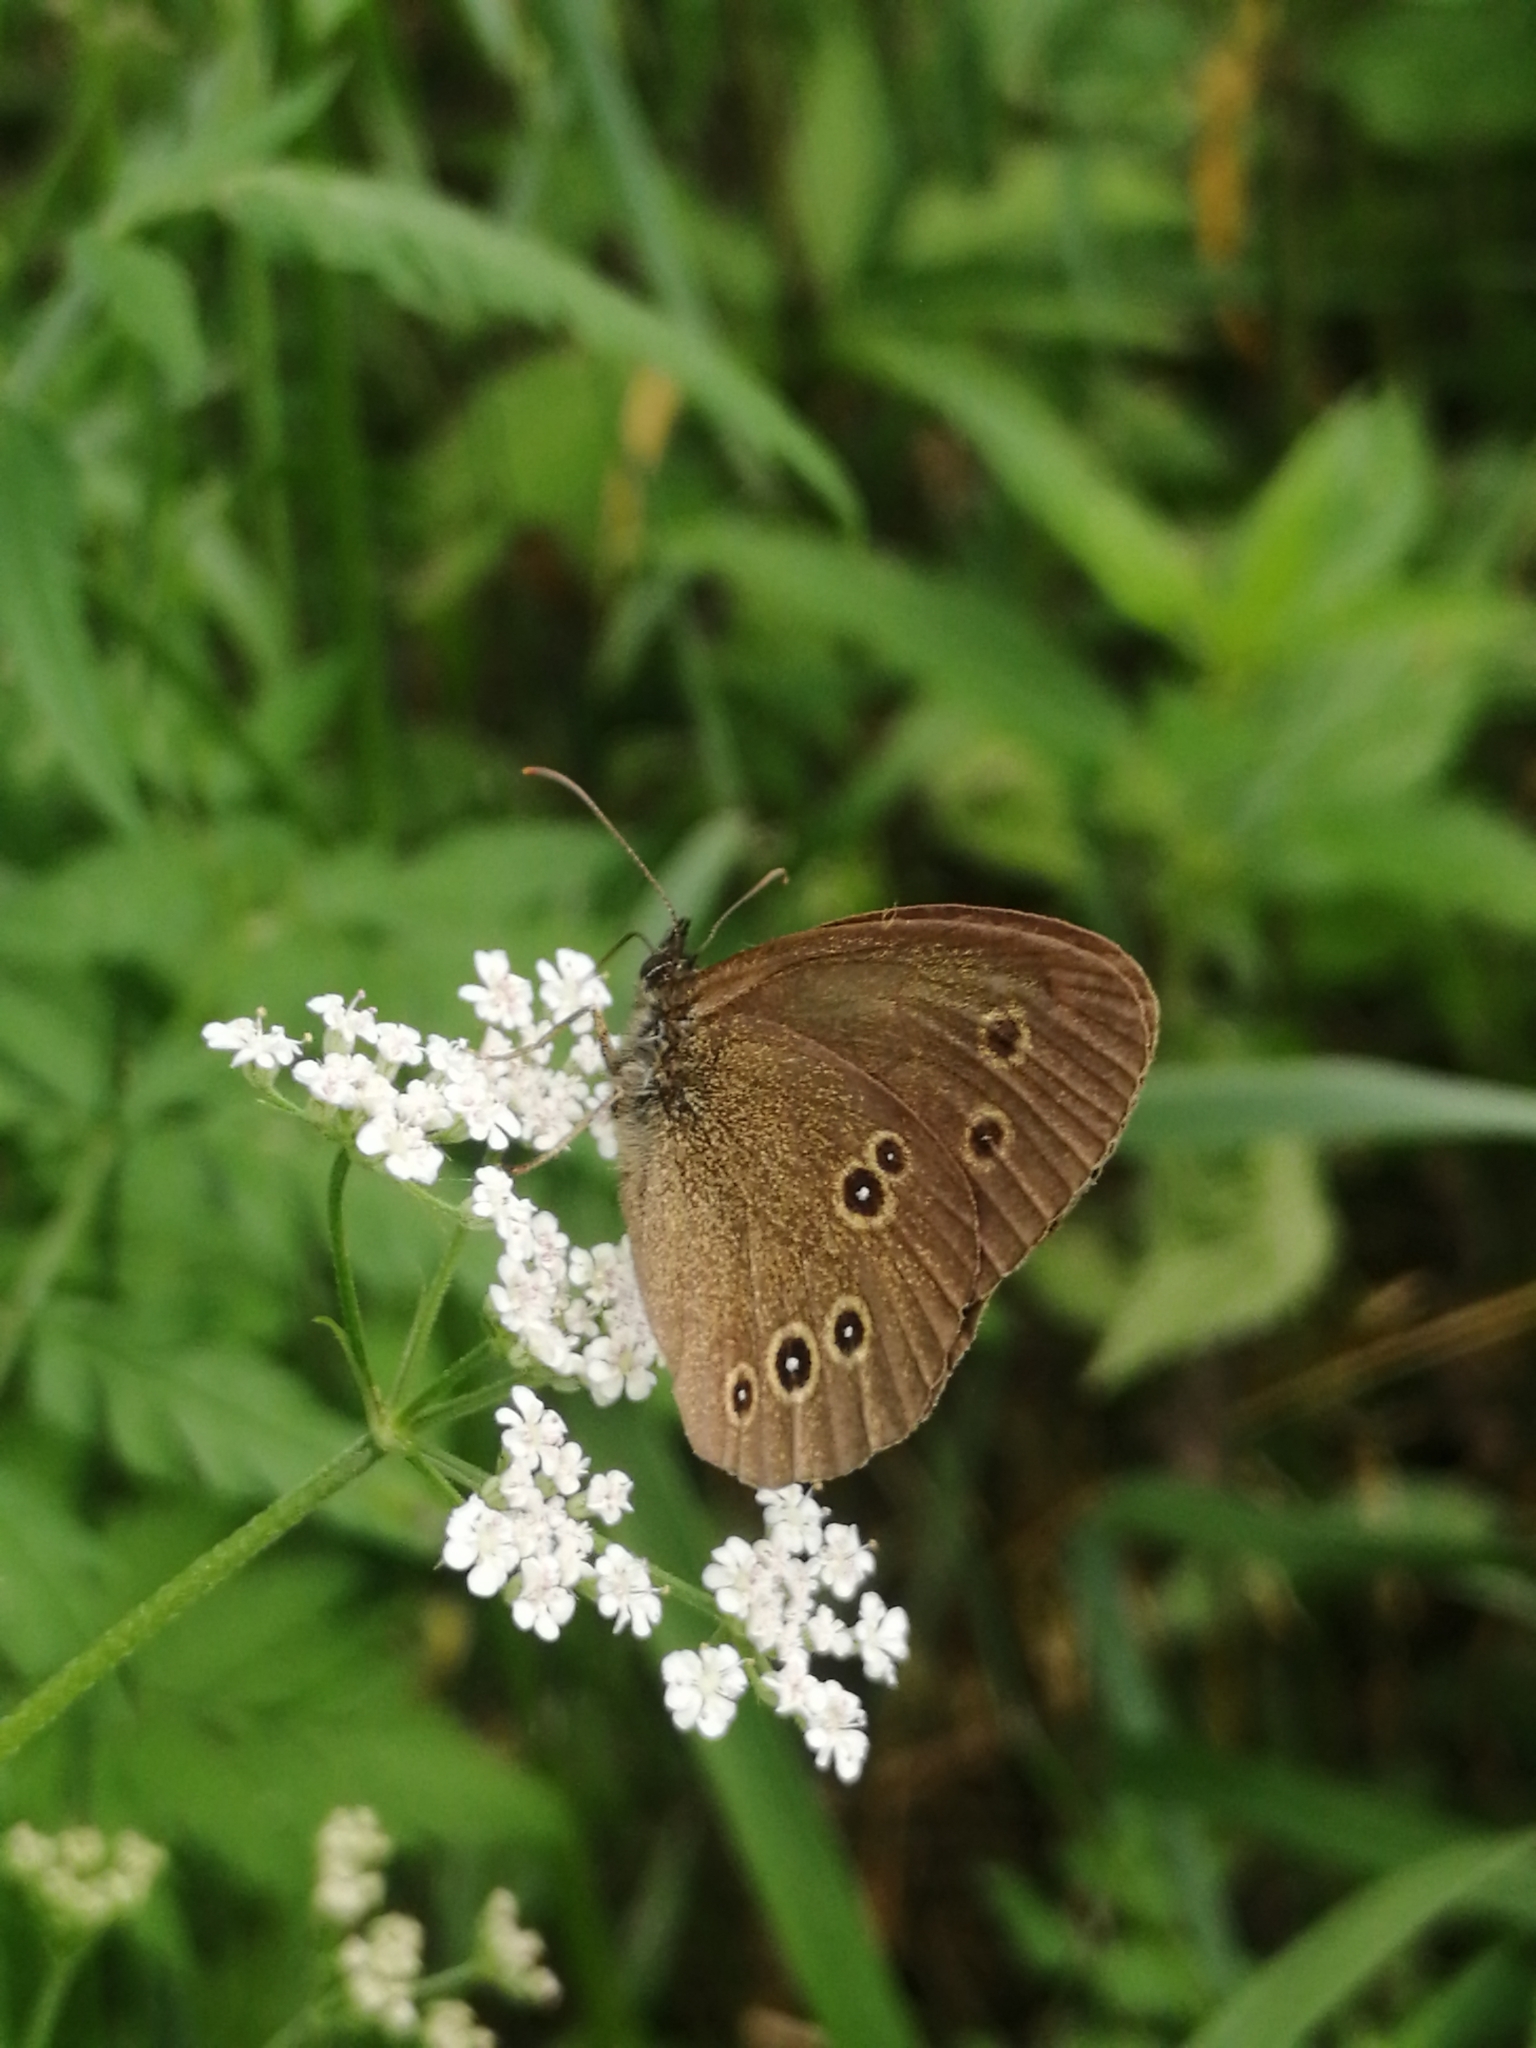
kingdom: Animalia
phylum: Arthropoda
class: Insecta
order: Lepidoptera
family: Nymphalidae
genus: Aphantopus
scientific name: Aphantopus hyperantus
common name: Ringlet
